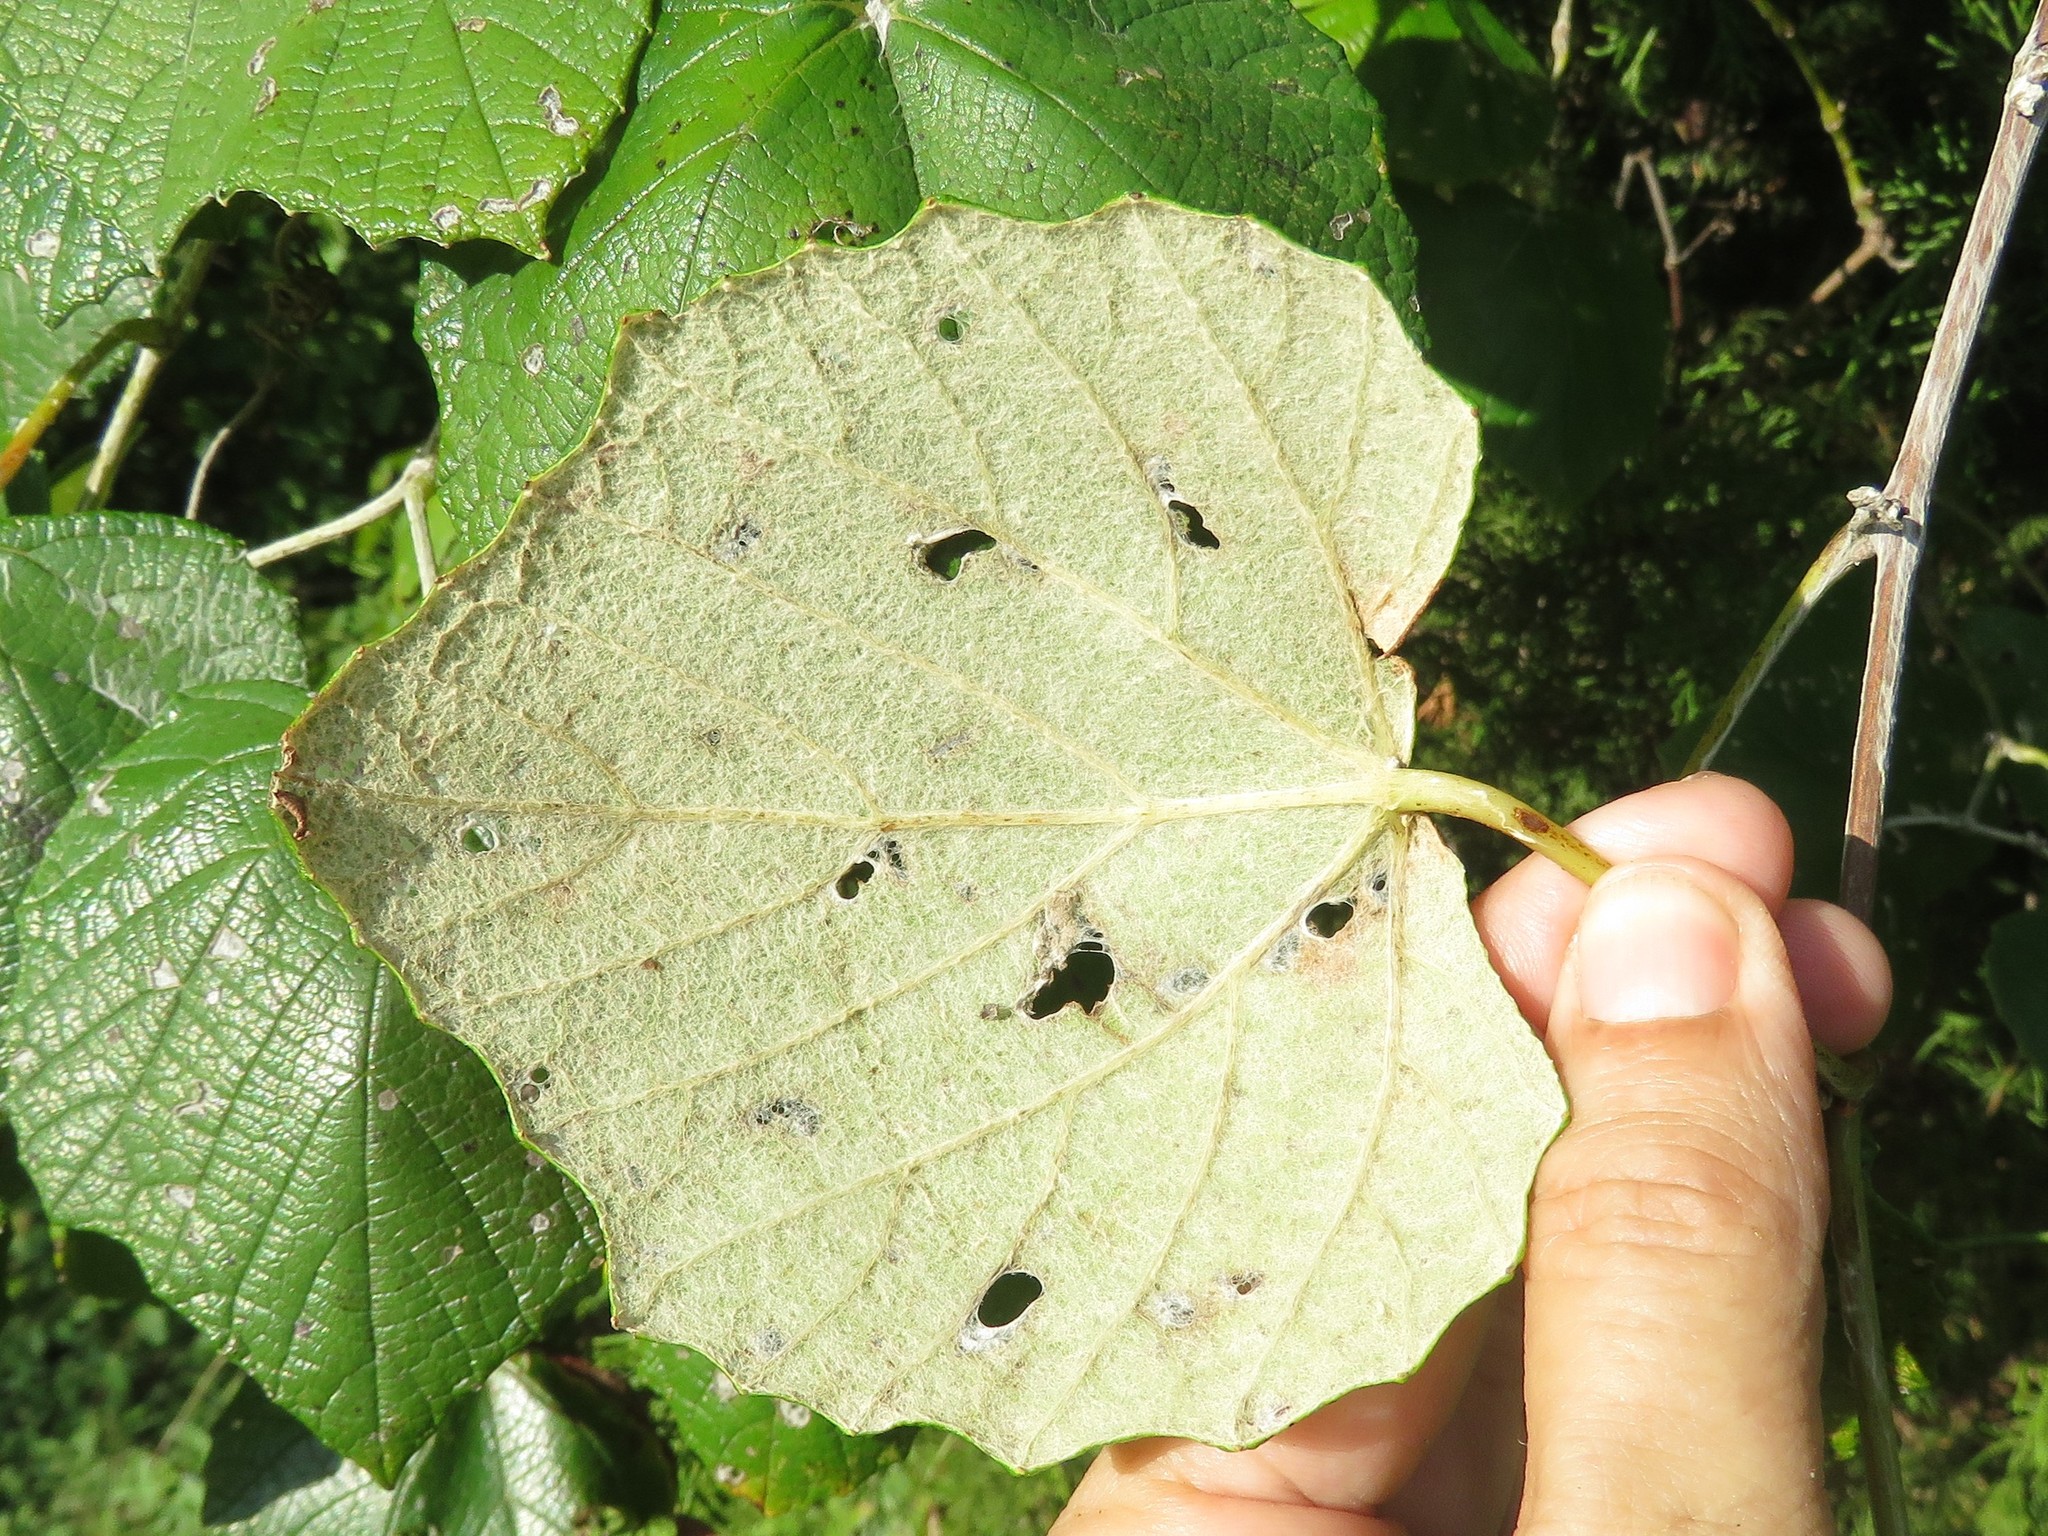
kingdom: Plantae
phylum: Tracheophyta
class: Magnoliopsida
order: Vitales
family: Vitaceae
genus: Vitis
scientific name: Vitis mustangensis
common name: Mustang grape
